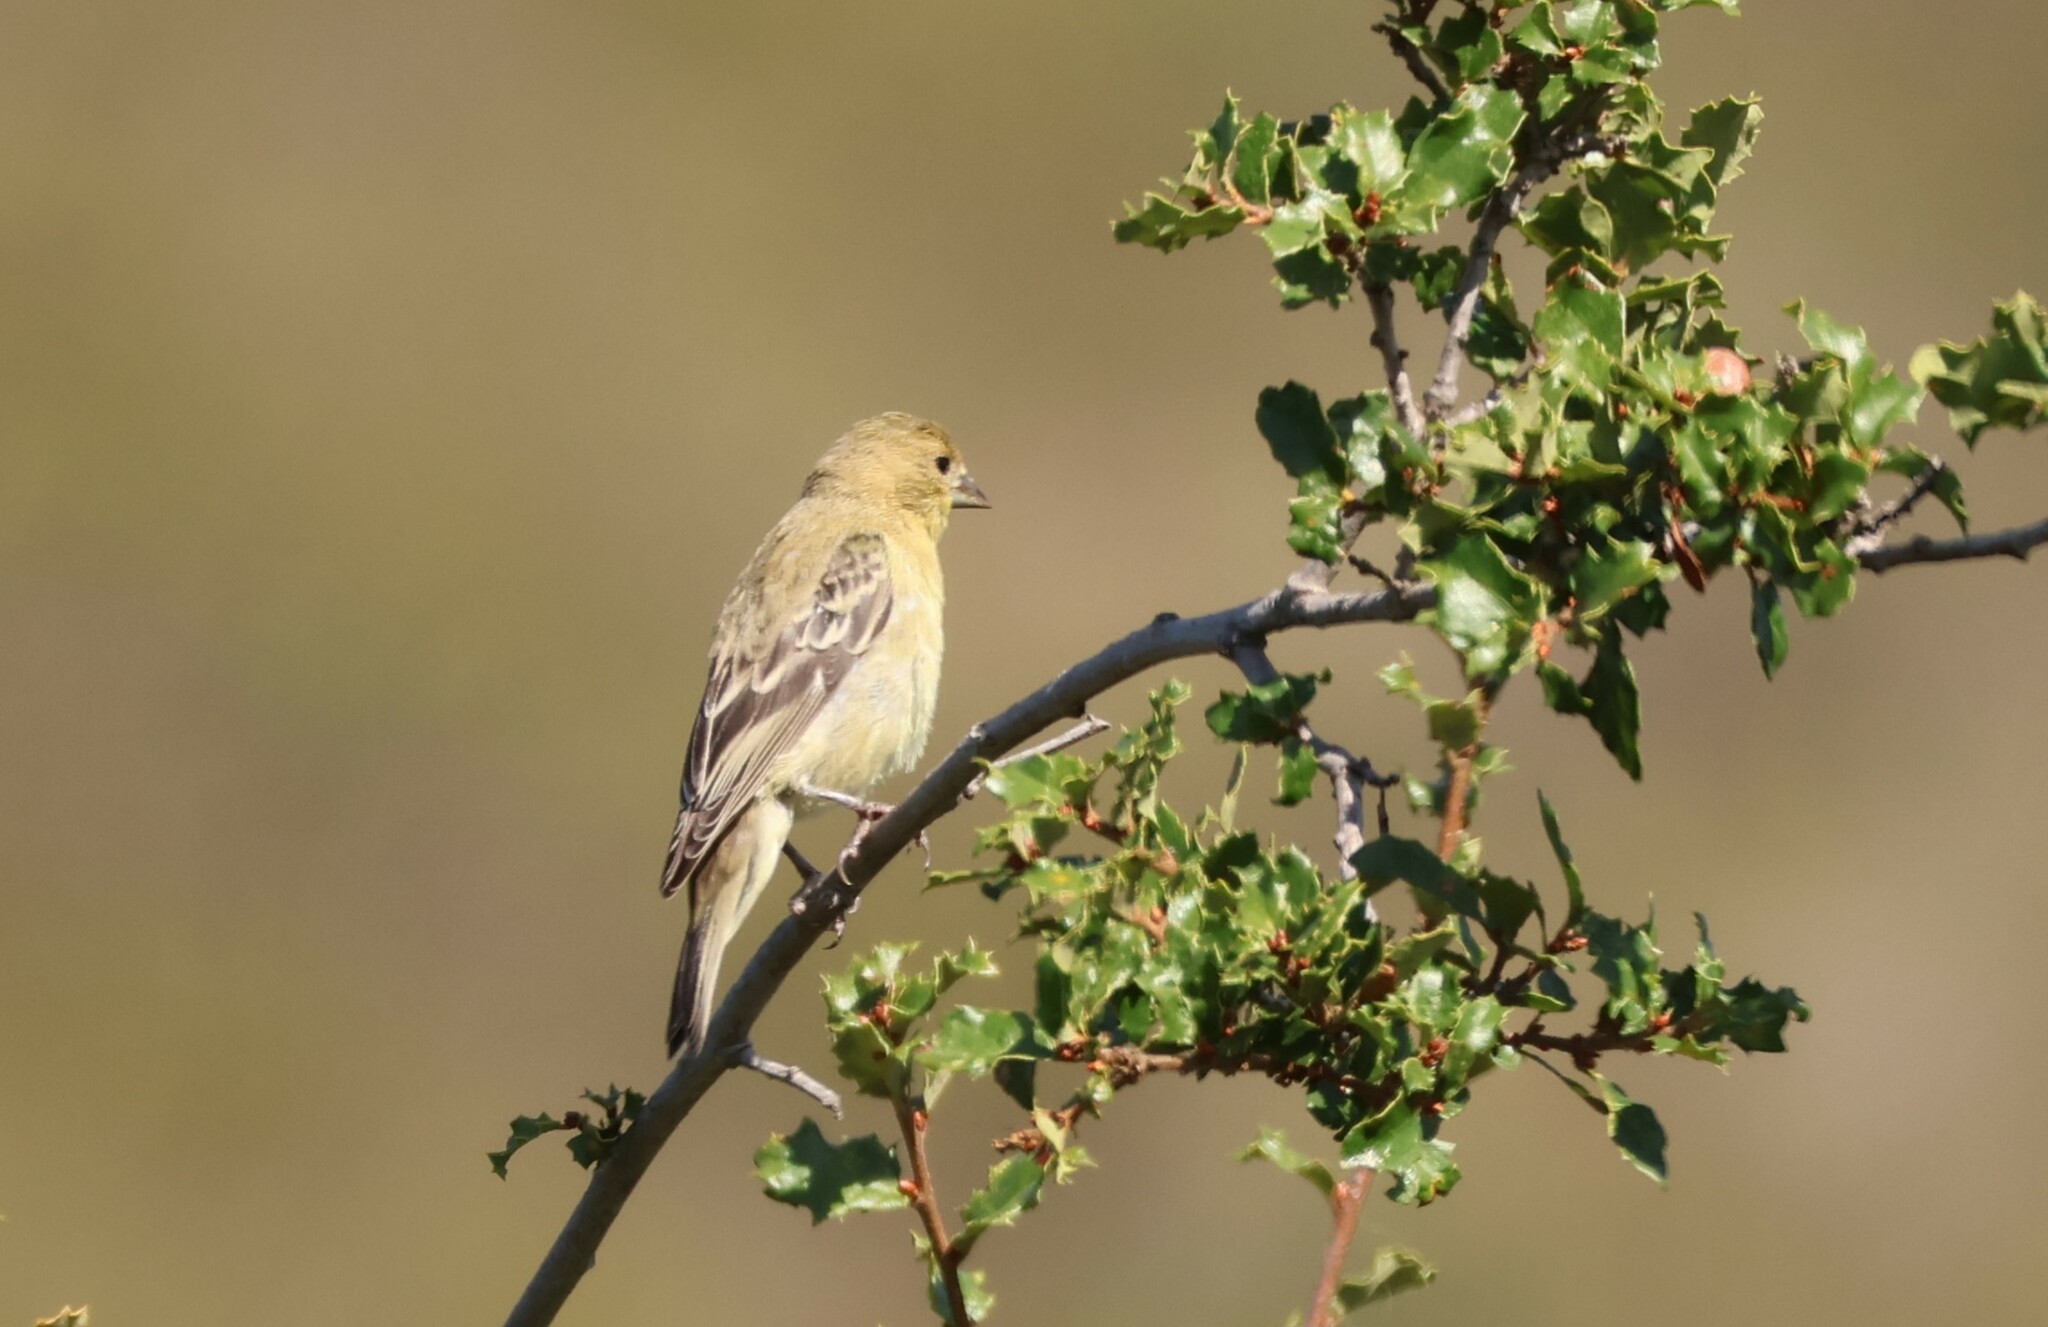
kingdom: Animalia
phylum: Chordata
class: Aves
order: Passeriformes
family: Fringillidae
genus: Spinus
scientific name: Spinus psaltria
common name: Lesser goldfinch
